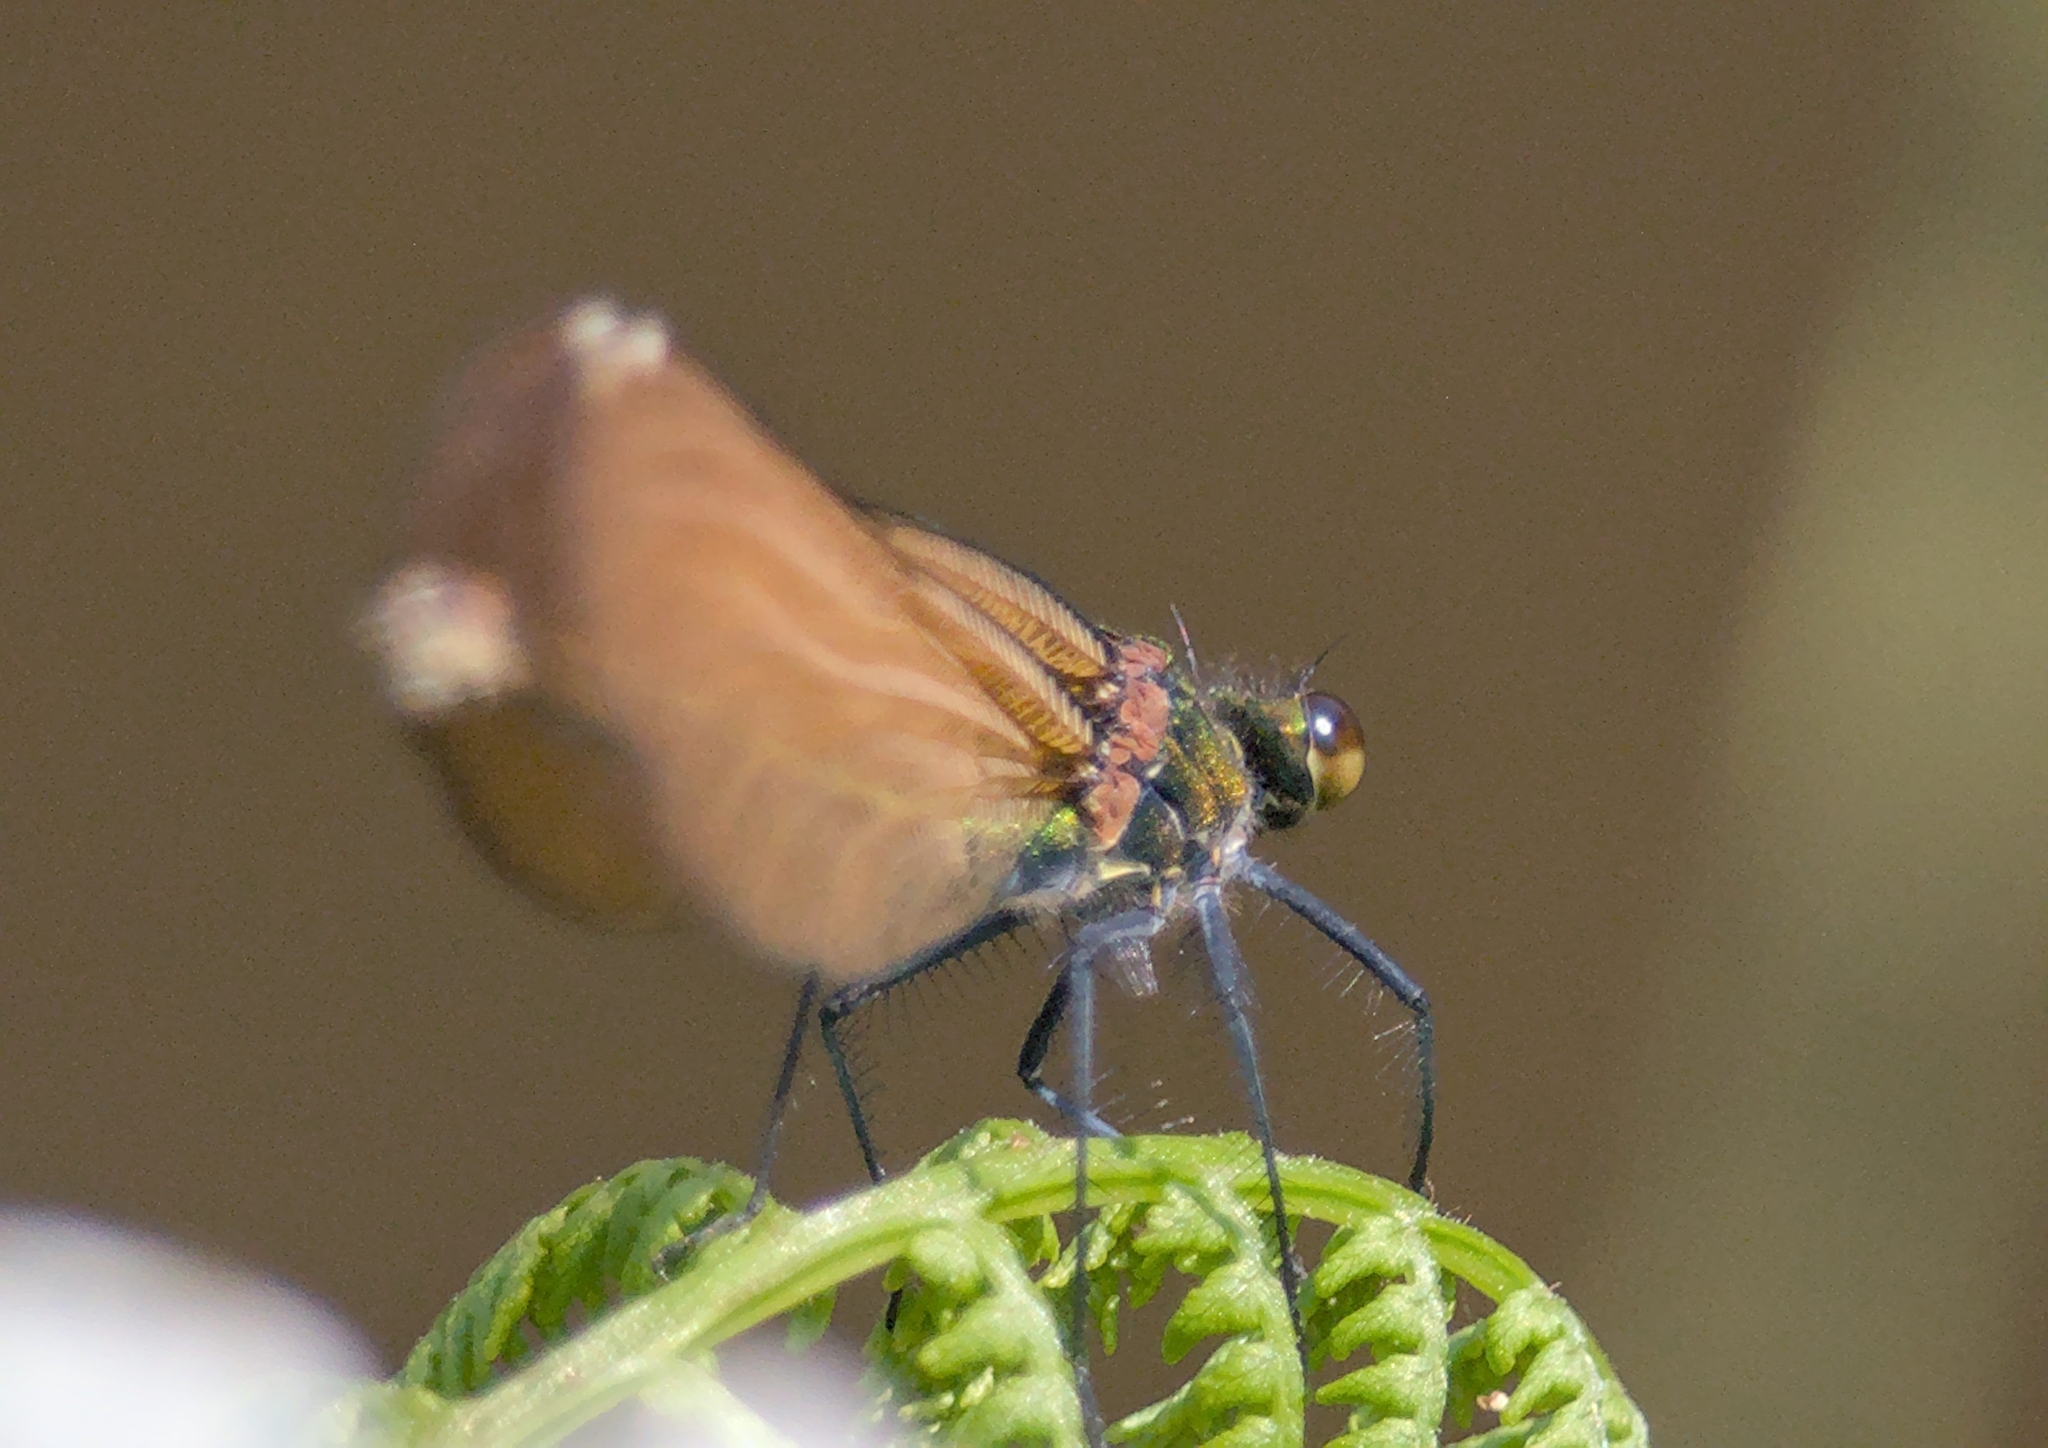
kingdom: Animalia
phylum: Arthropoda
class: Insecta
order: Odonata
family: Calopterygidae
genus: Calopteryx
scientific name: Calopteryx virgo
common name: Beautiful demoiselle
